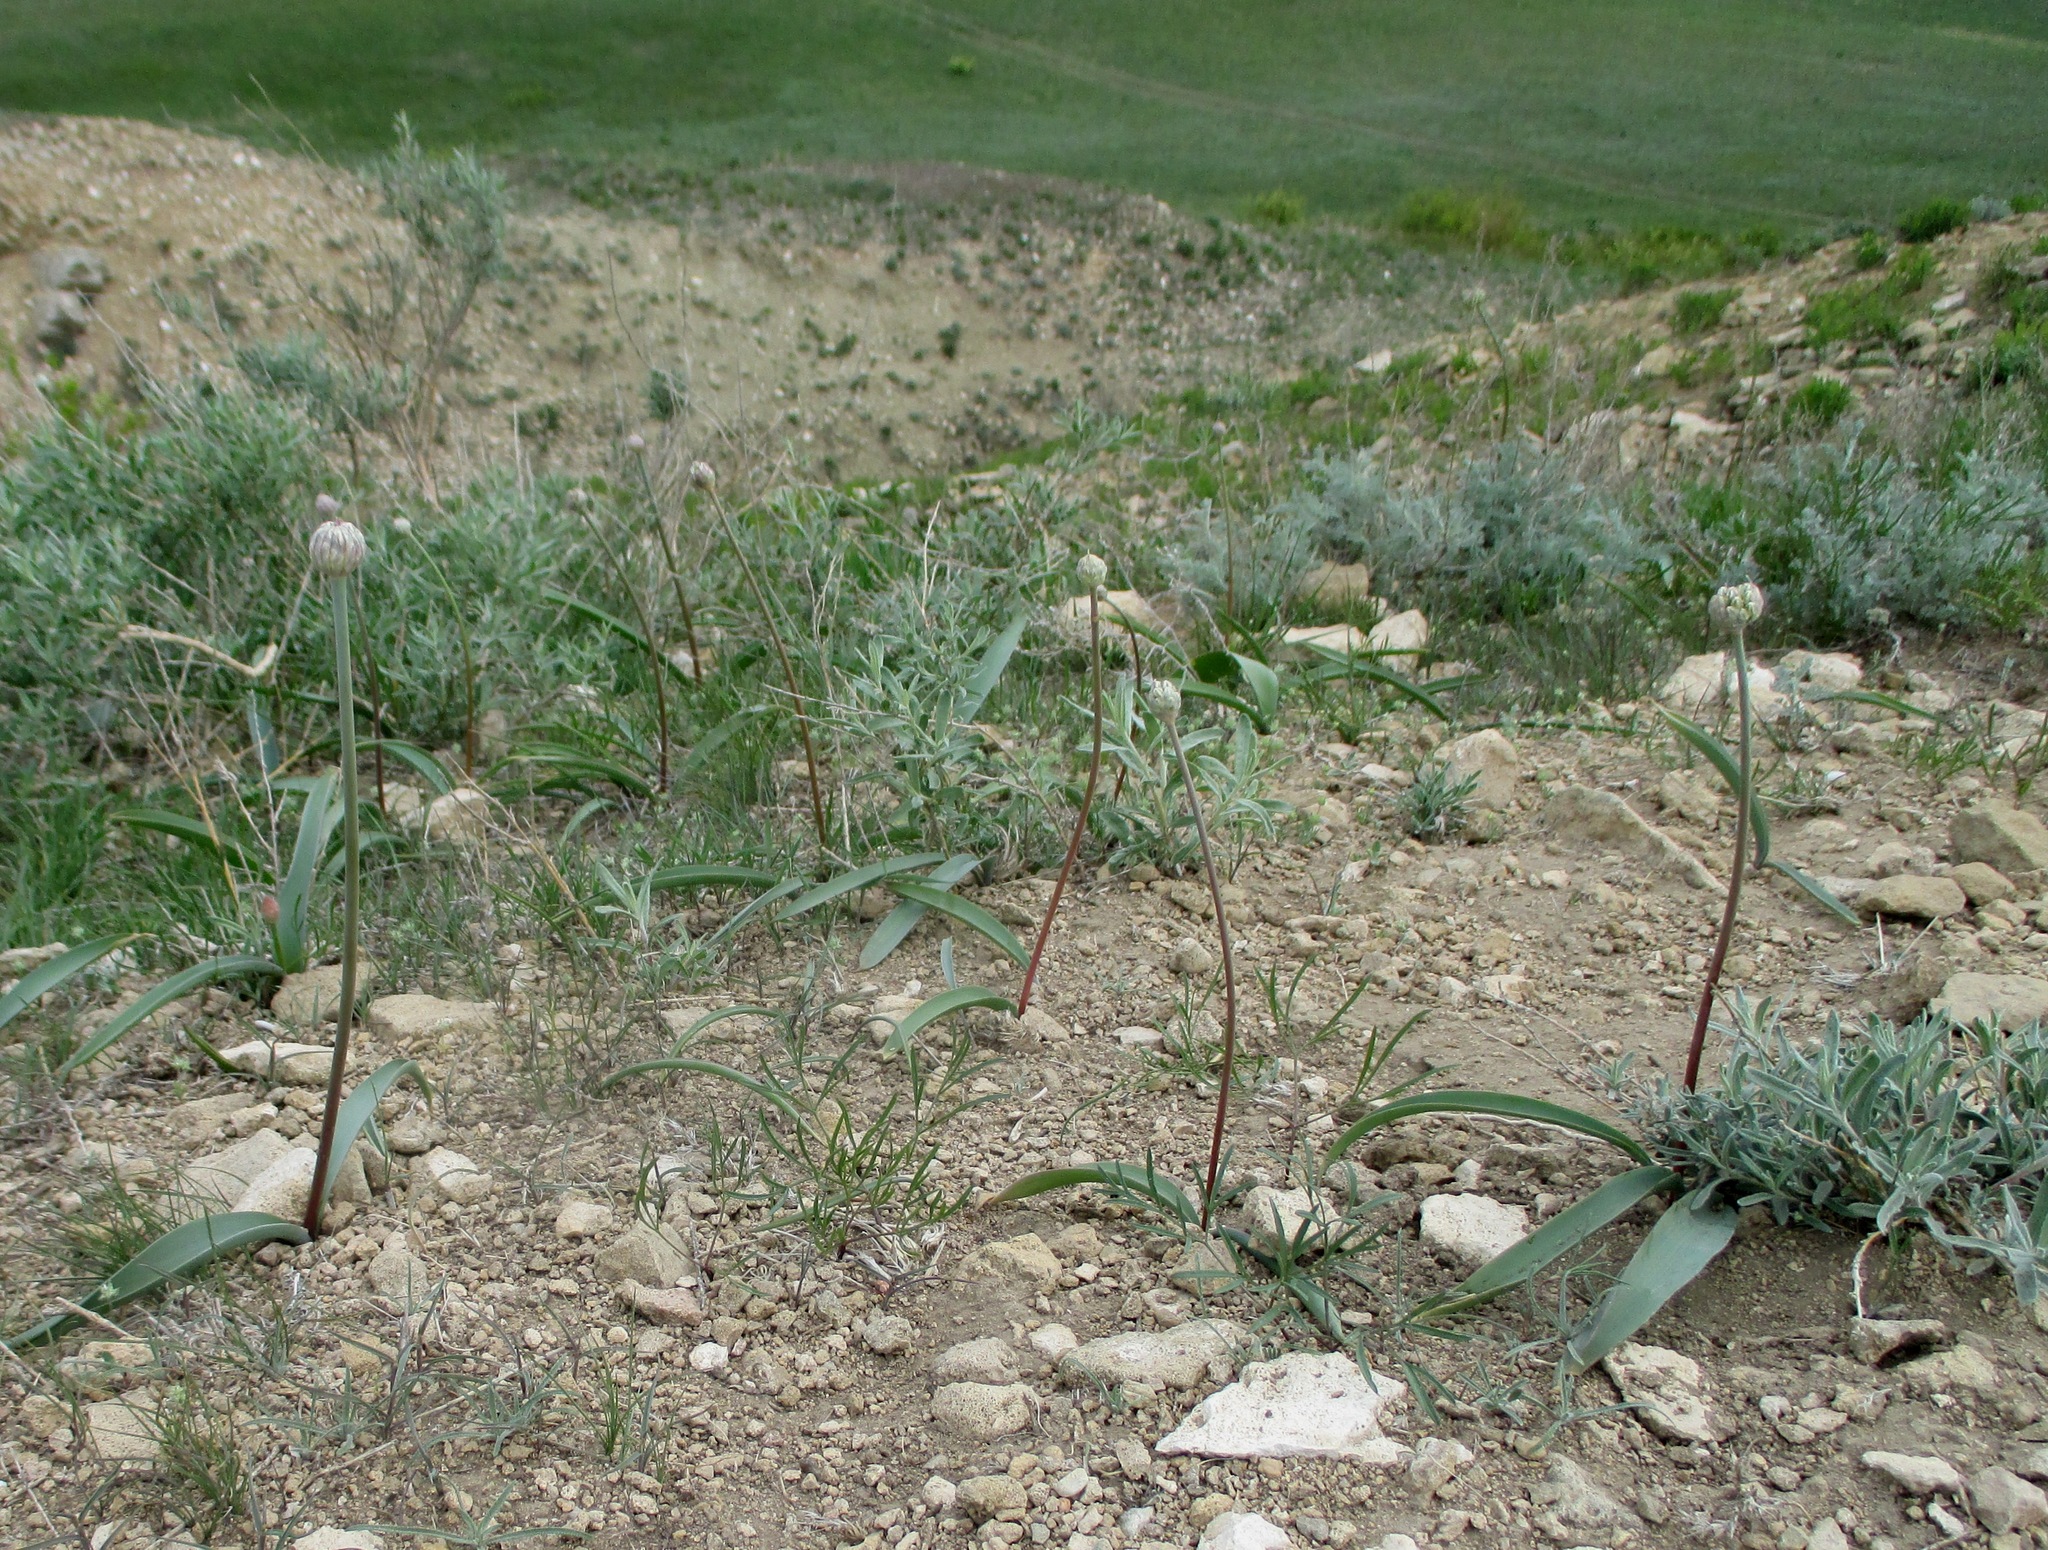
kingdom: Plantae
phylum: Tracheophyta
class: Liliopsida
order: Asparagales
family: Amaryllidaceae
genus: Allium
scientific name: Allium tulipifolium
